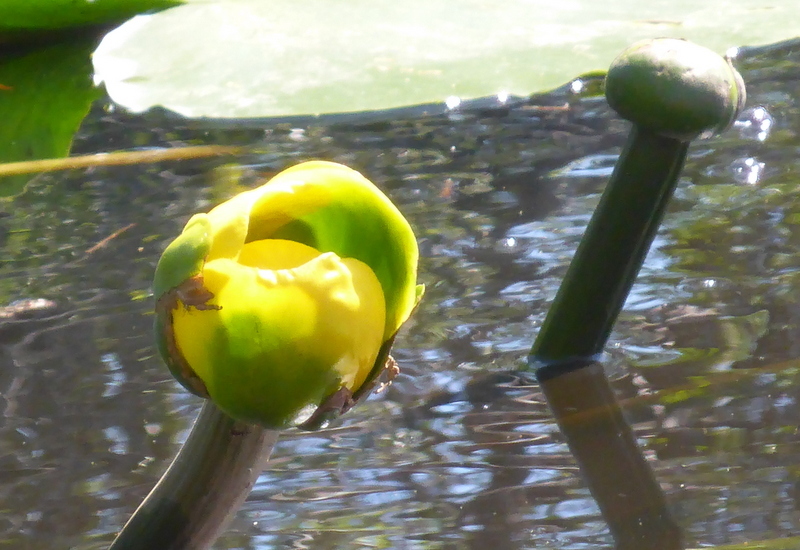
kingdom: Plantae
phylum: Tracheophyta
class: Magnoliopsida
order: Nymphaeales
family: Nymphaeaceae
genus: Nuphar
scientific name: Nuphar advena
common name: Spatter-dock
